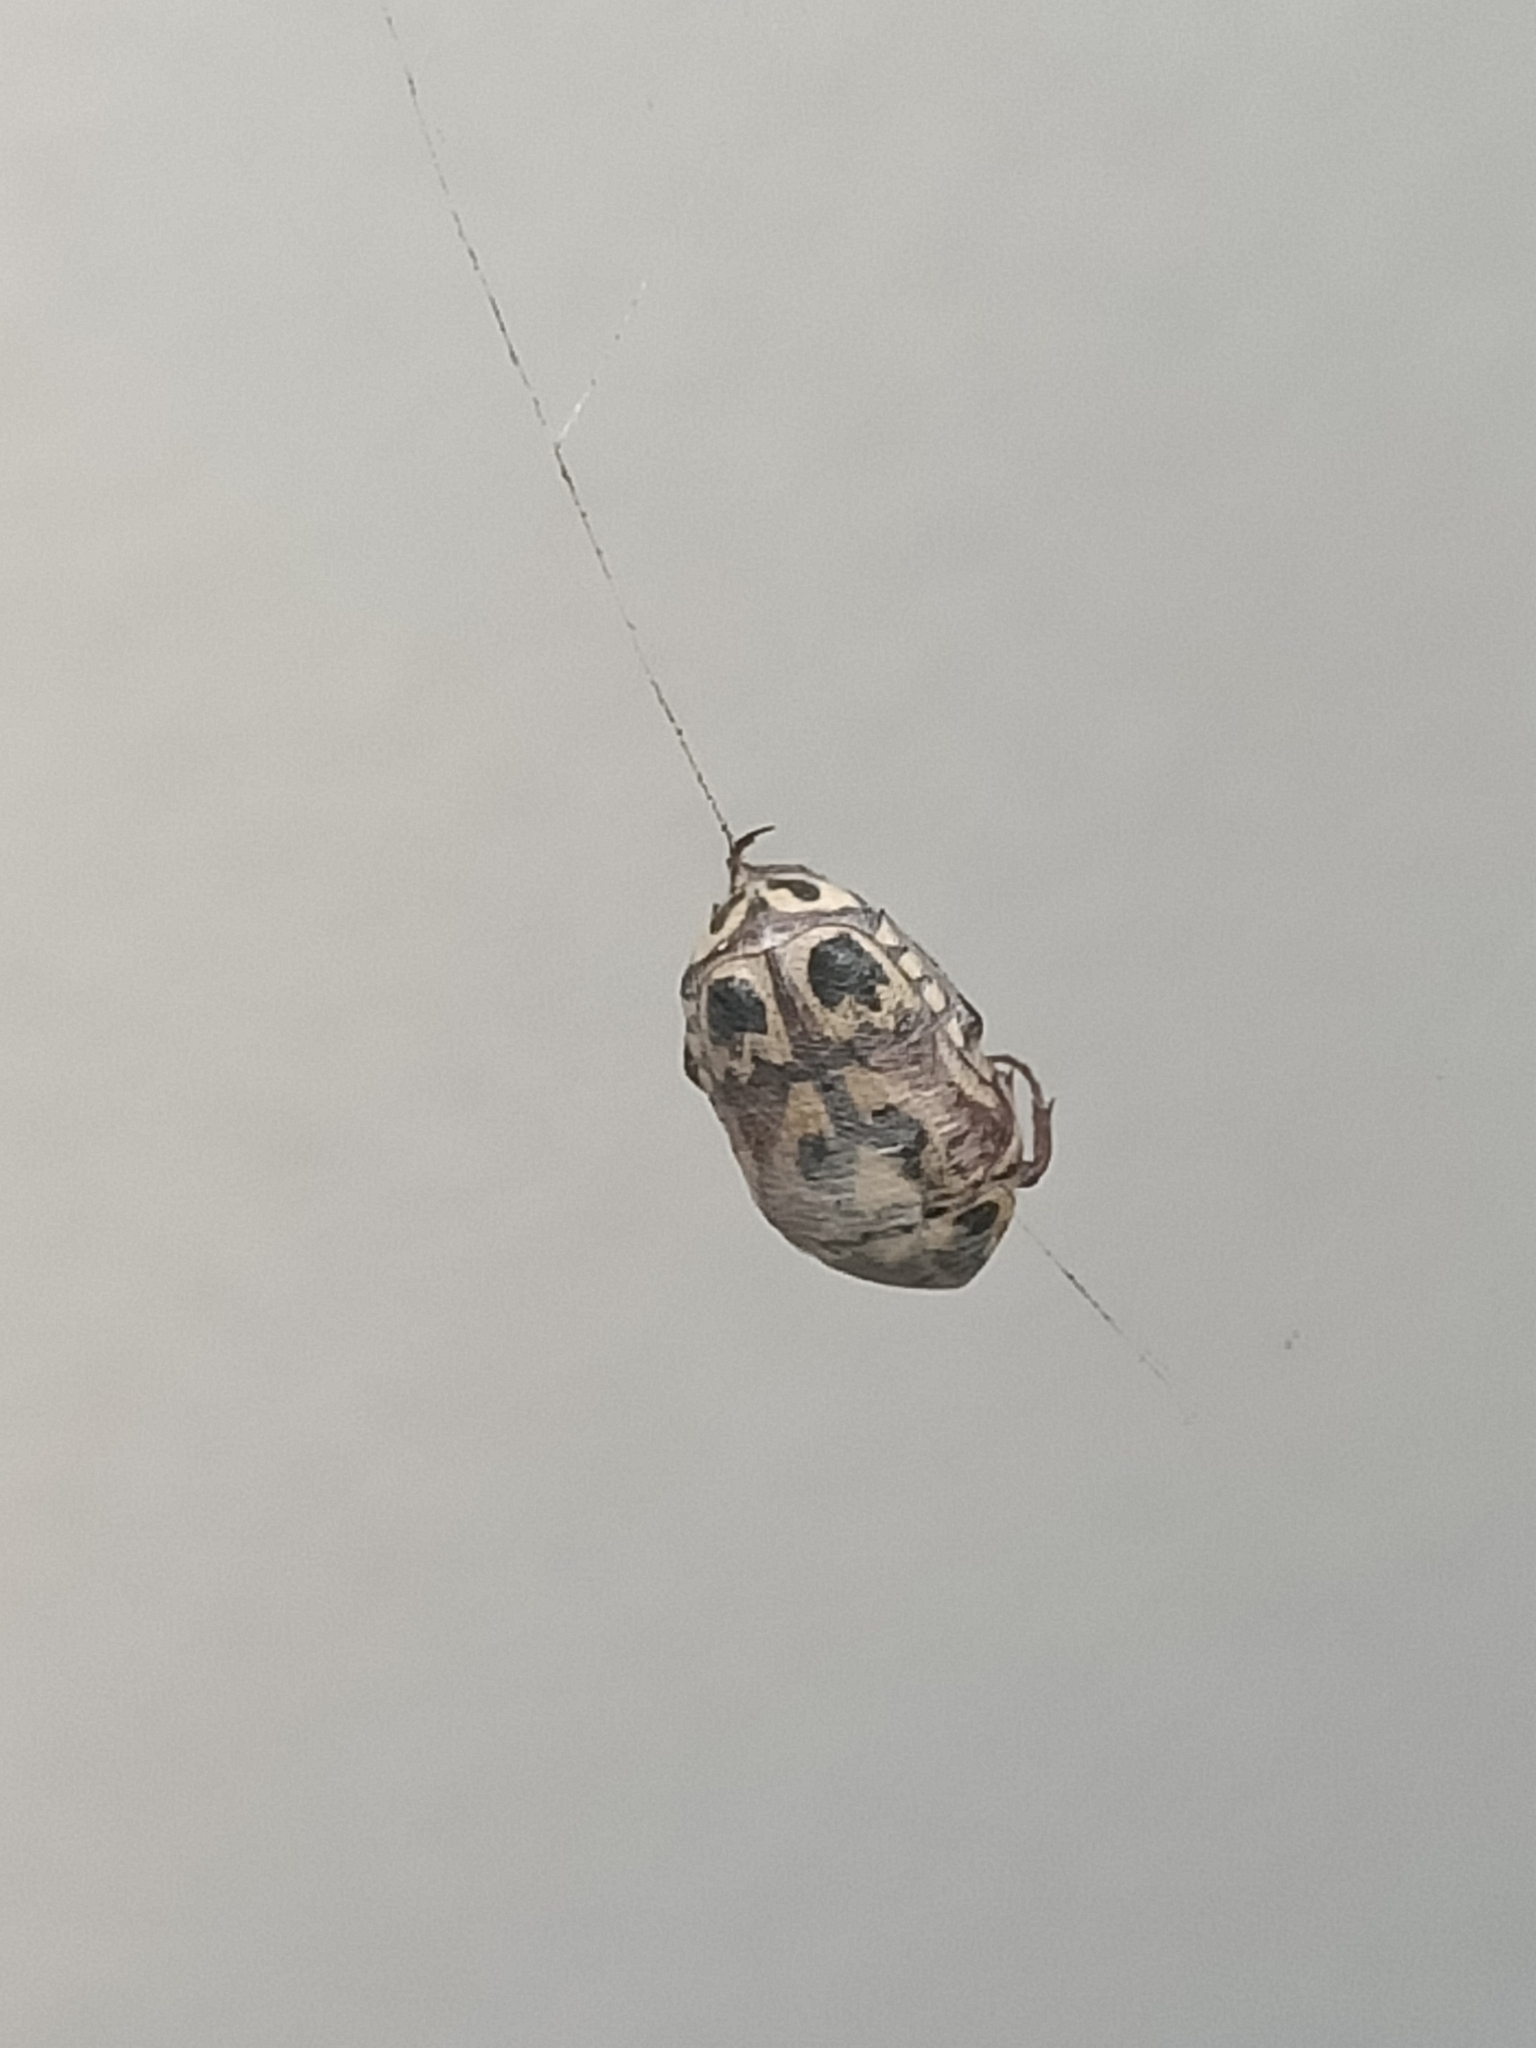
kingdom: Animalia
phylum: Arthropoda
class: Insecta
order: Coleoptera
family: Scarabaeidae
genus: Lyraphora
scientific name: Lyraphora obliquata
